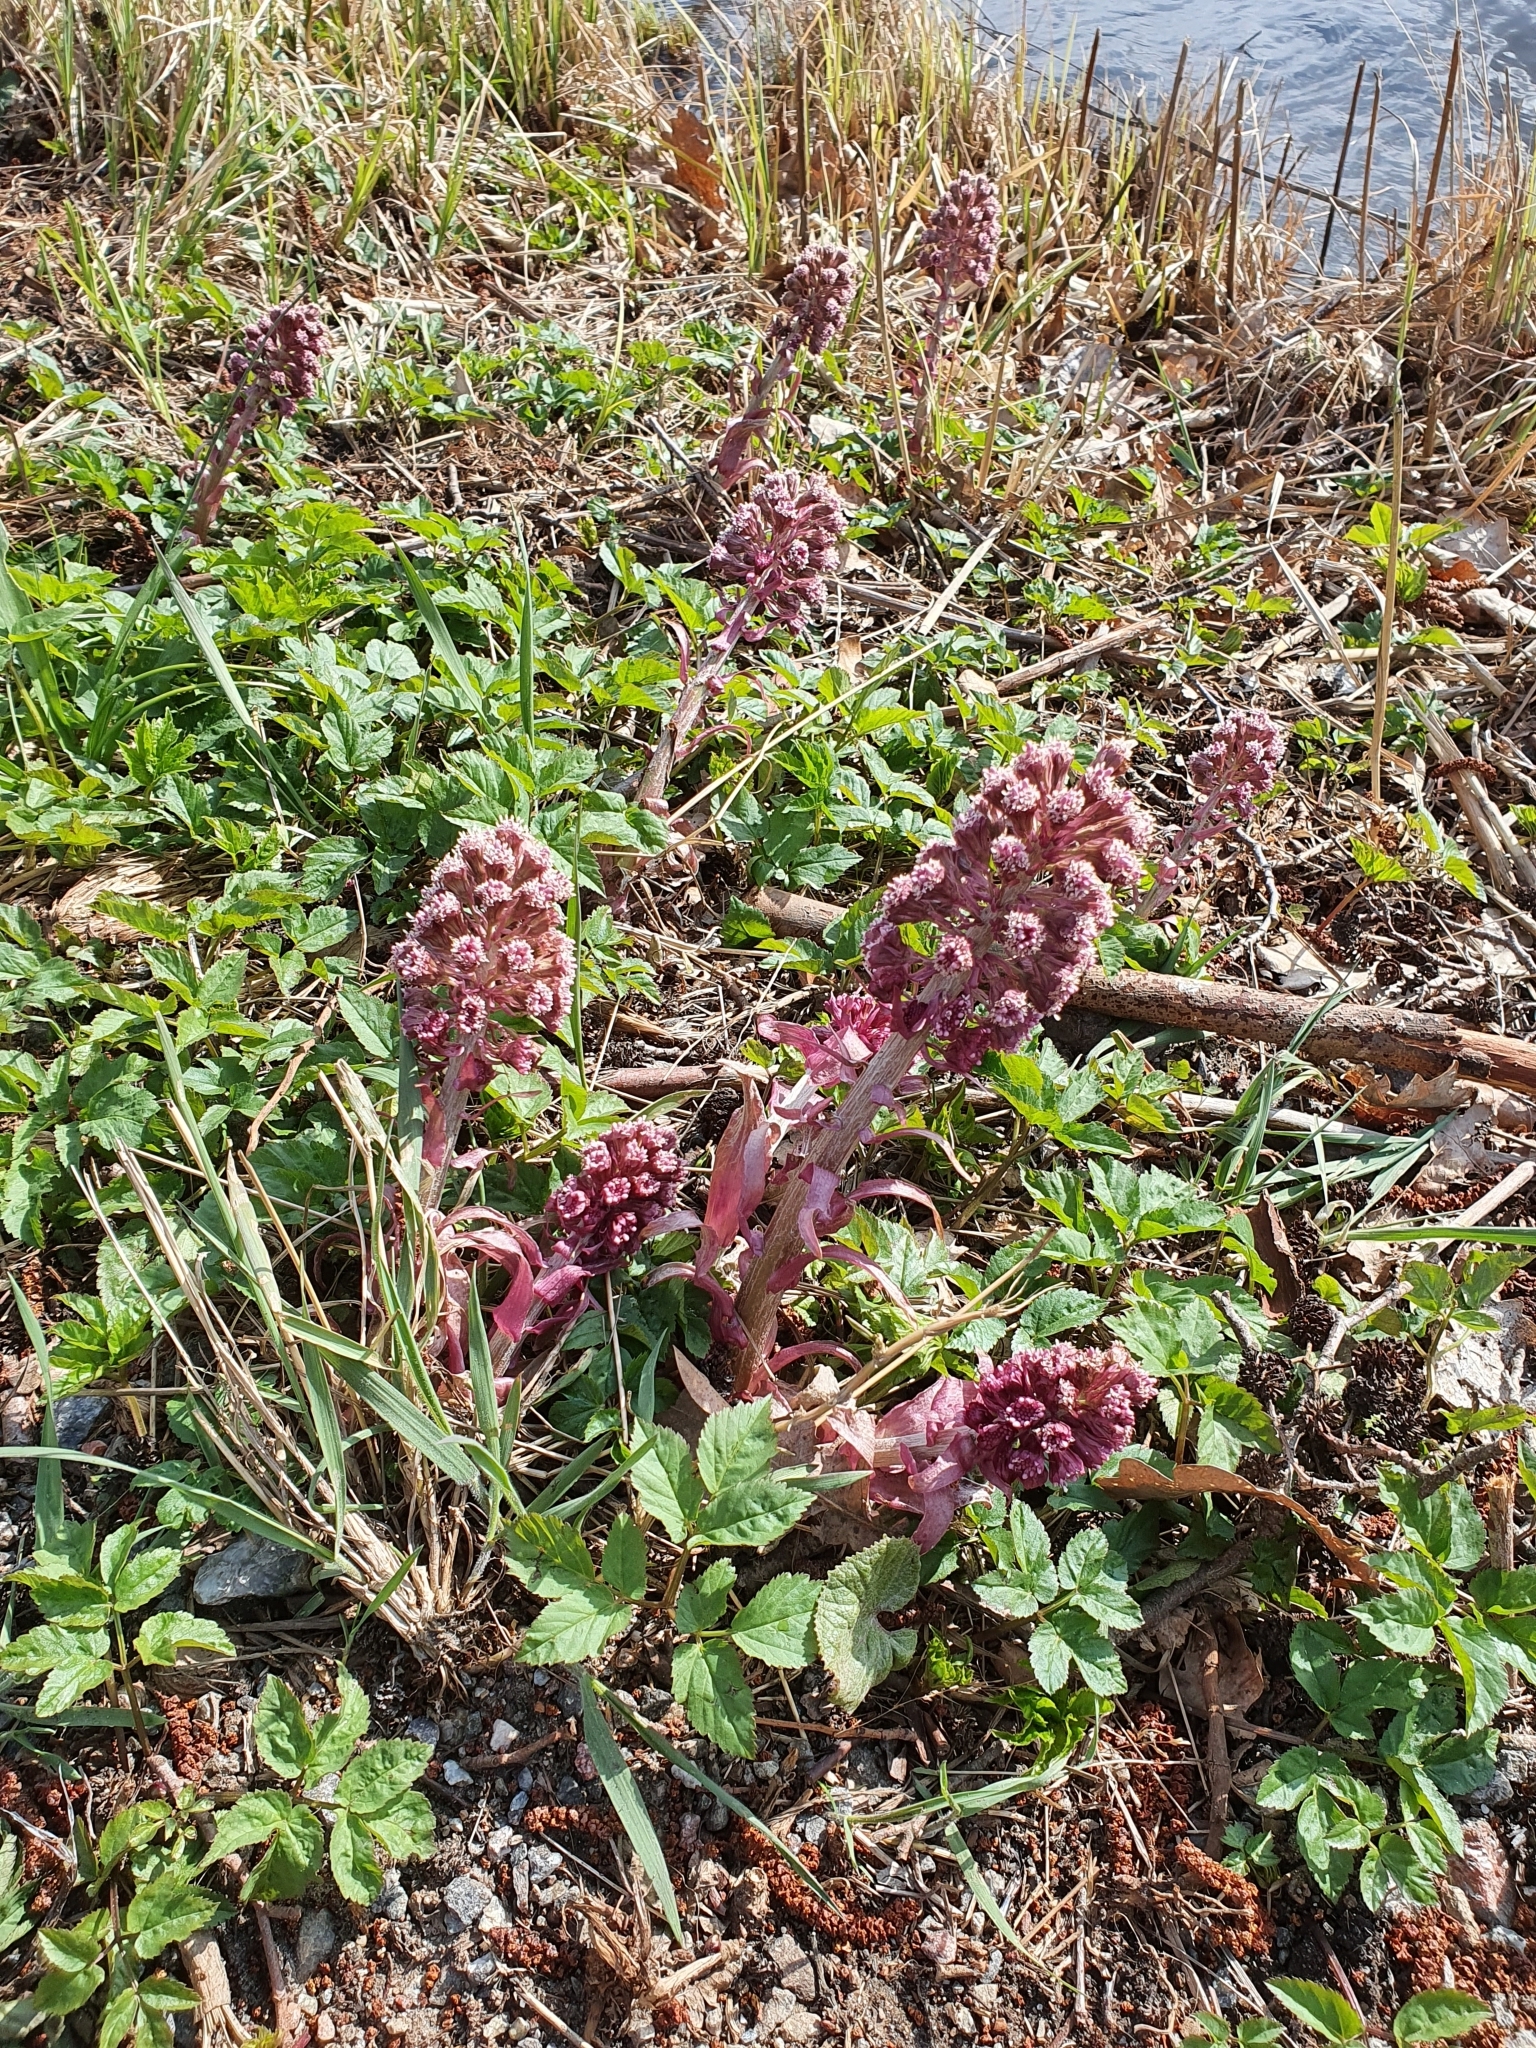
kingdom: Plantae
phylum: Tracheophyta
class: Magnoliopsida
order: Asterales
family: Asteraceae
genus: Petasites
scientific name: Petasites hybridus
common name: Butterbur
